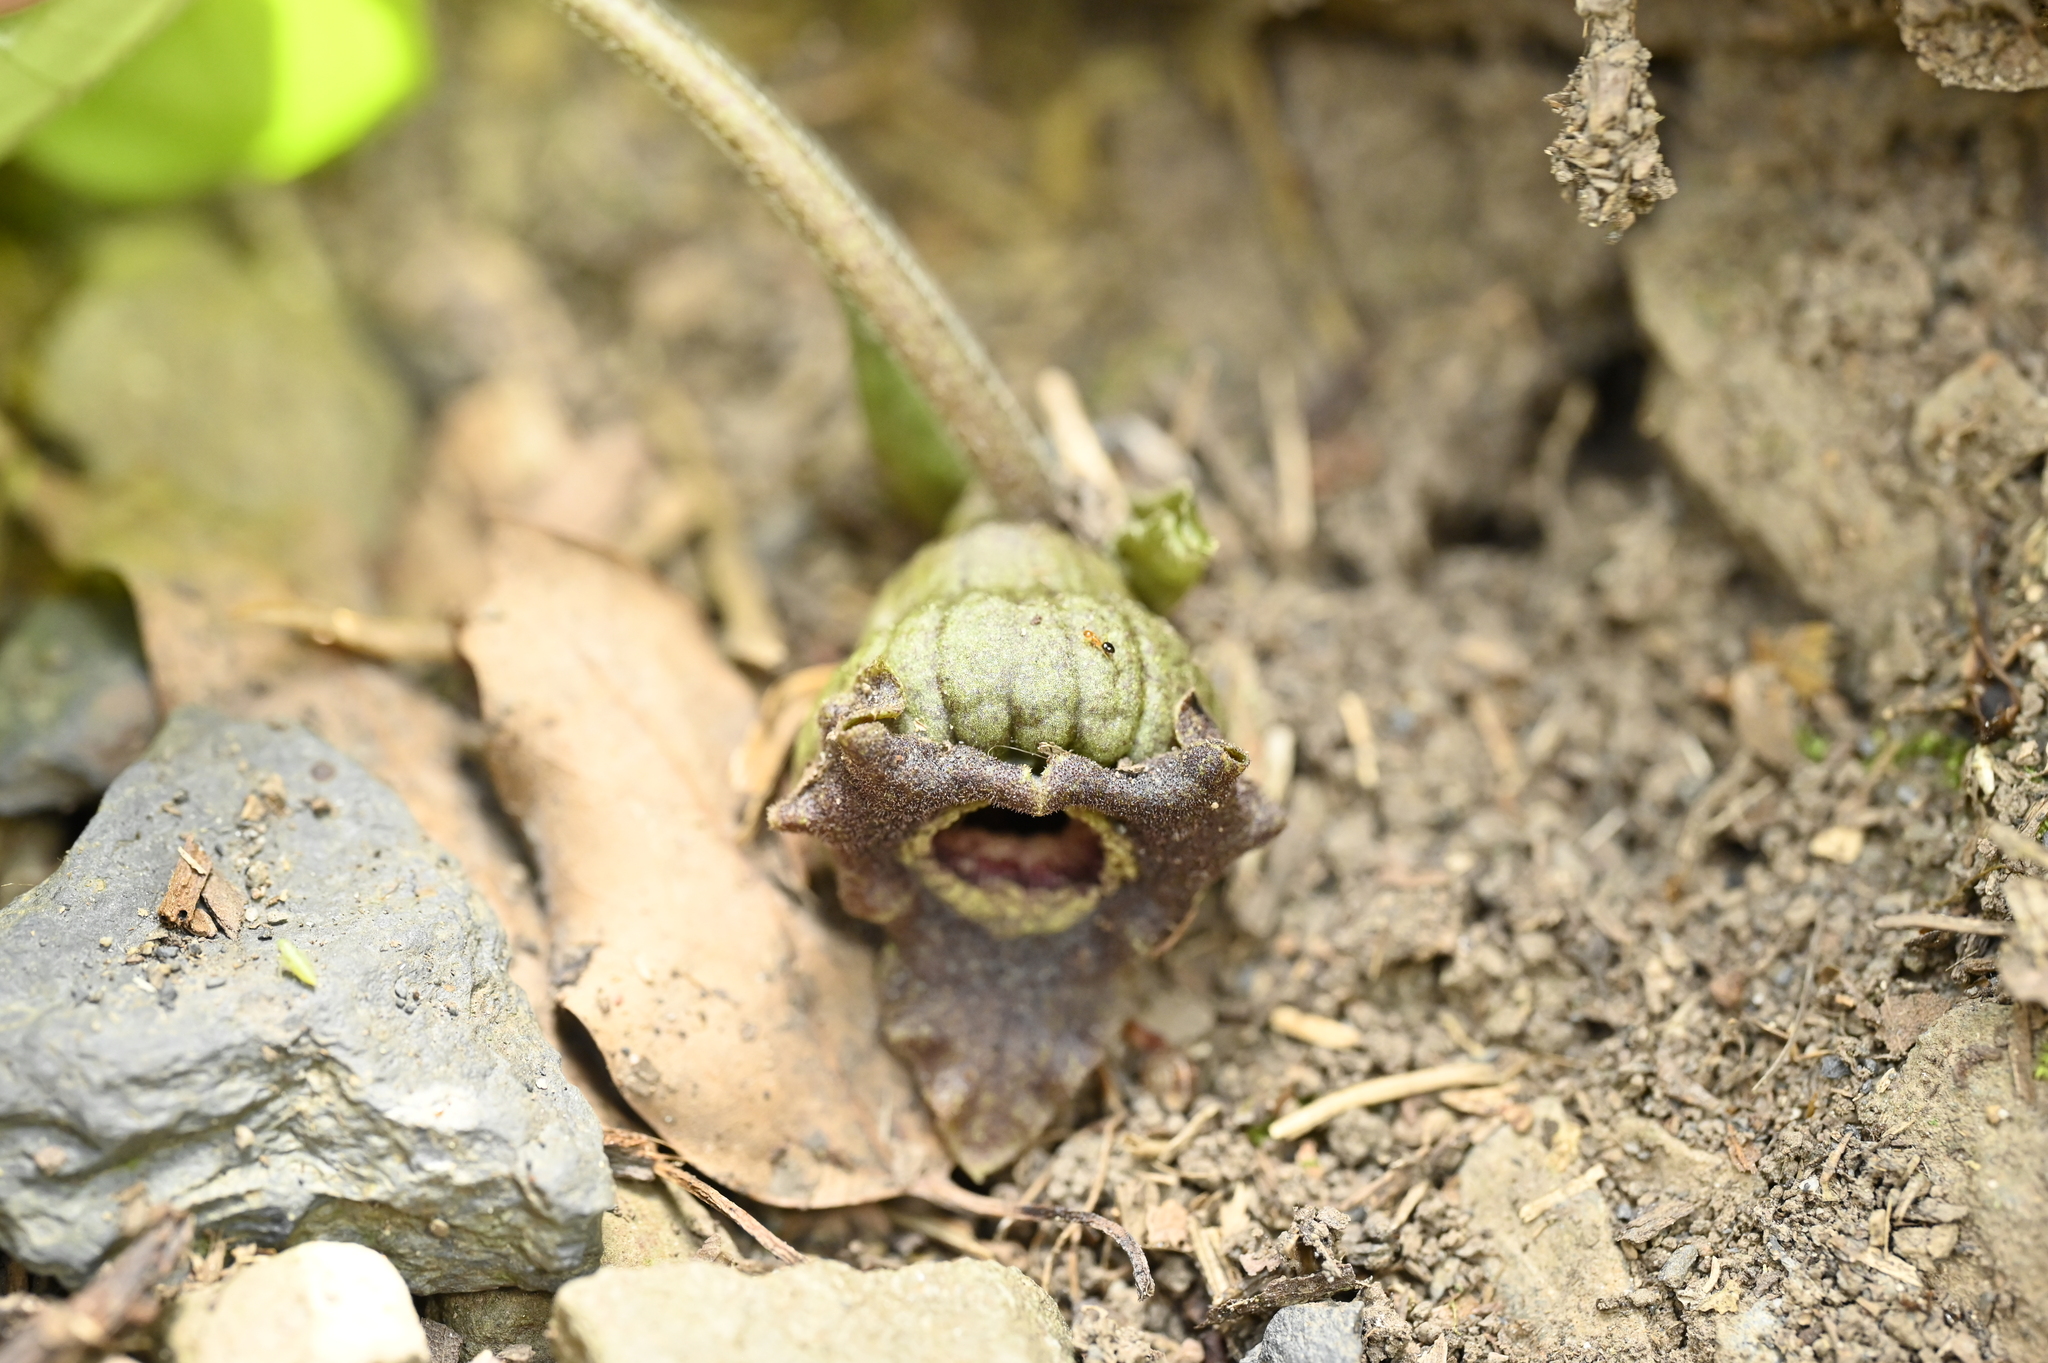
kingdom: Plantae
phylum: Tracheophyta
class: Magnoliopsida
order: Piperales
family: Aristolochiaceae
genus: Asarum
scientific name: Asarum satsumense
